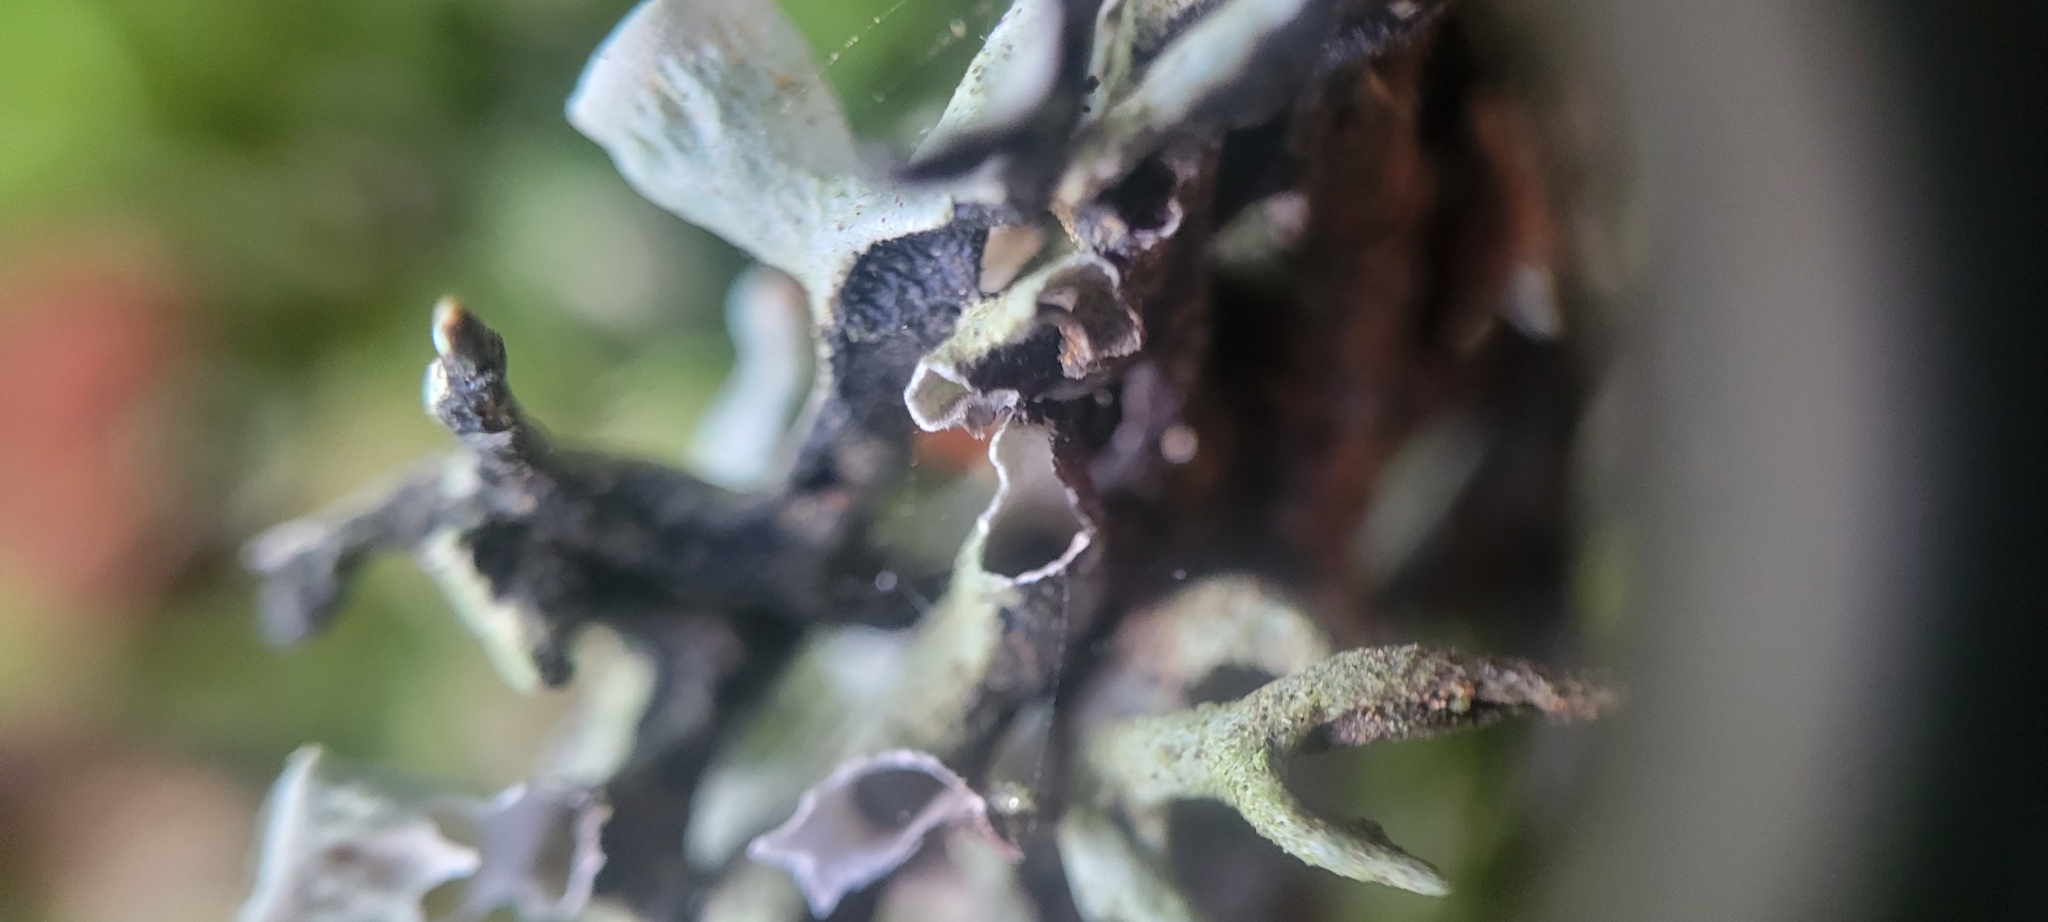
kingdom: Fungi
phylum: Ascomycota
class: Lecanoromycetes
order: Lecanorales
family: Parmeliaceae
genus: Hypogymnia
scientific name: Hypogymnia imshaugii
